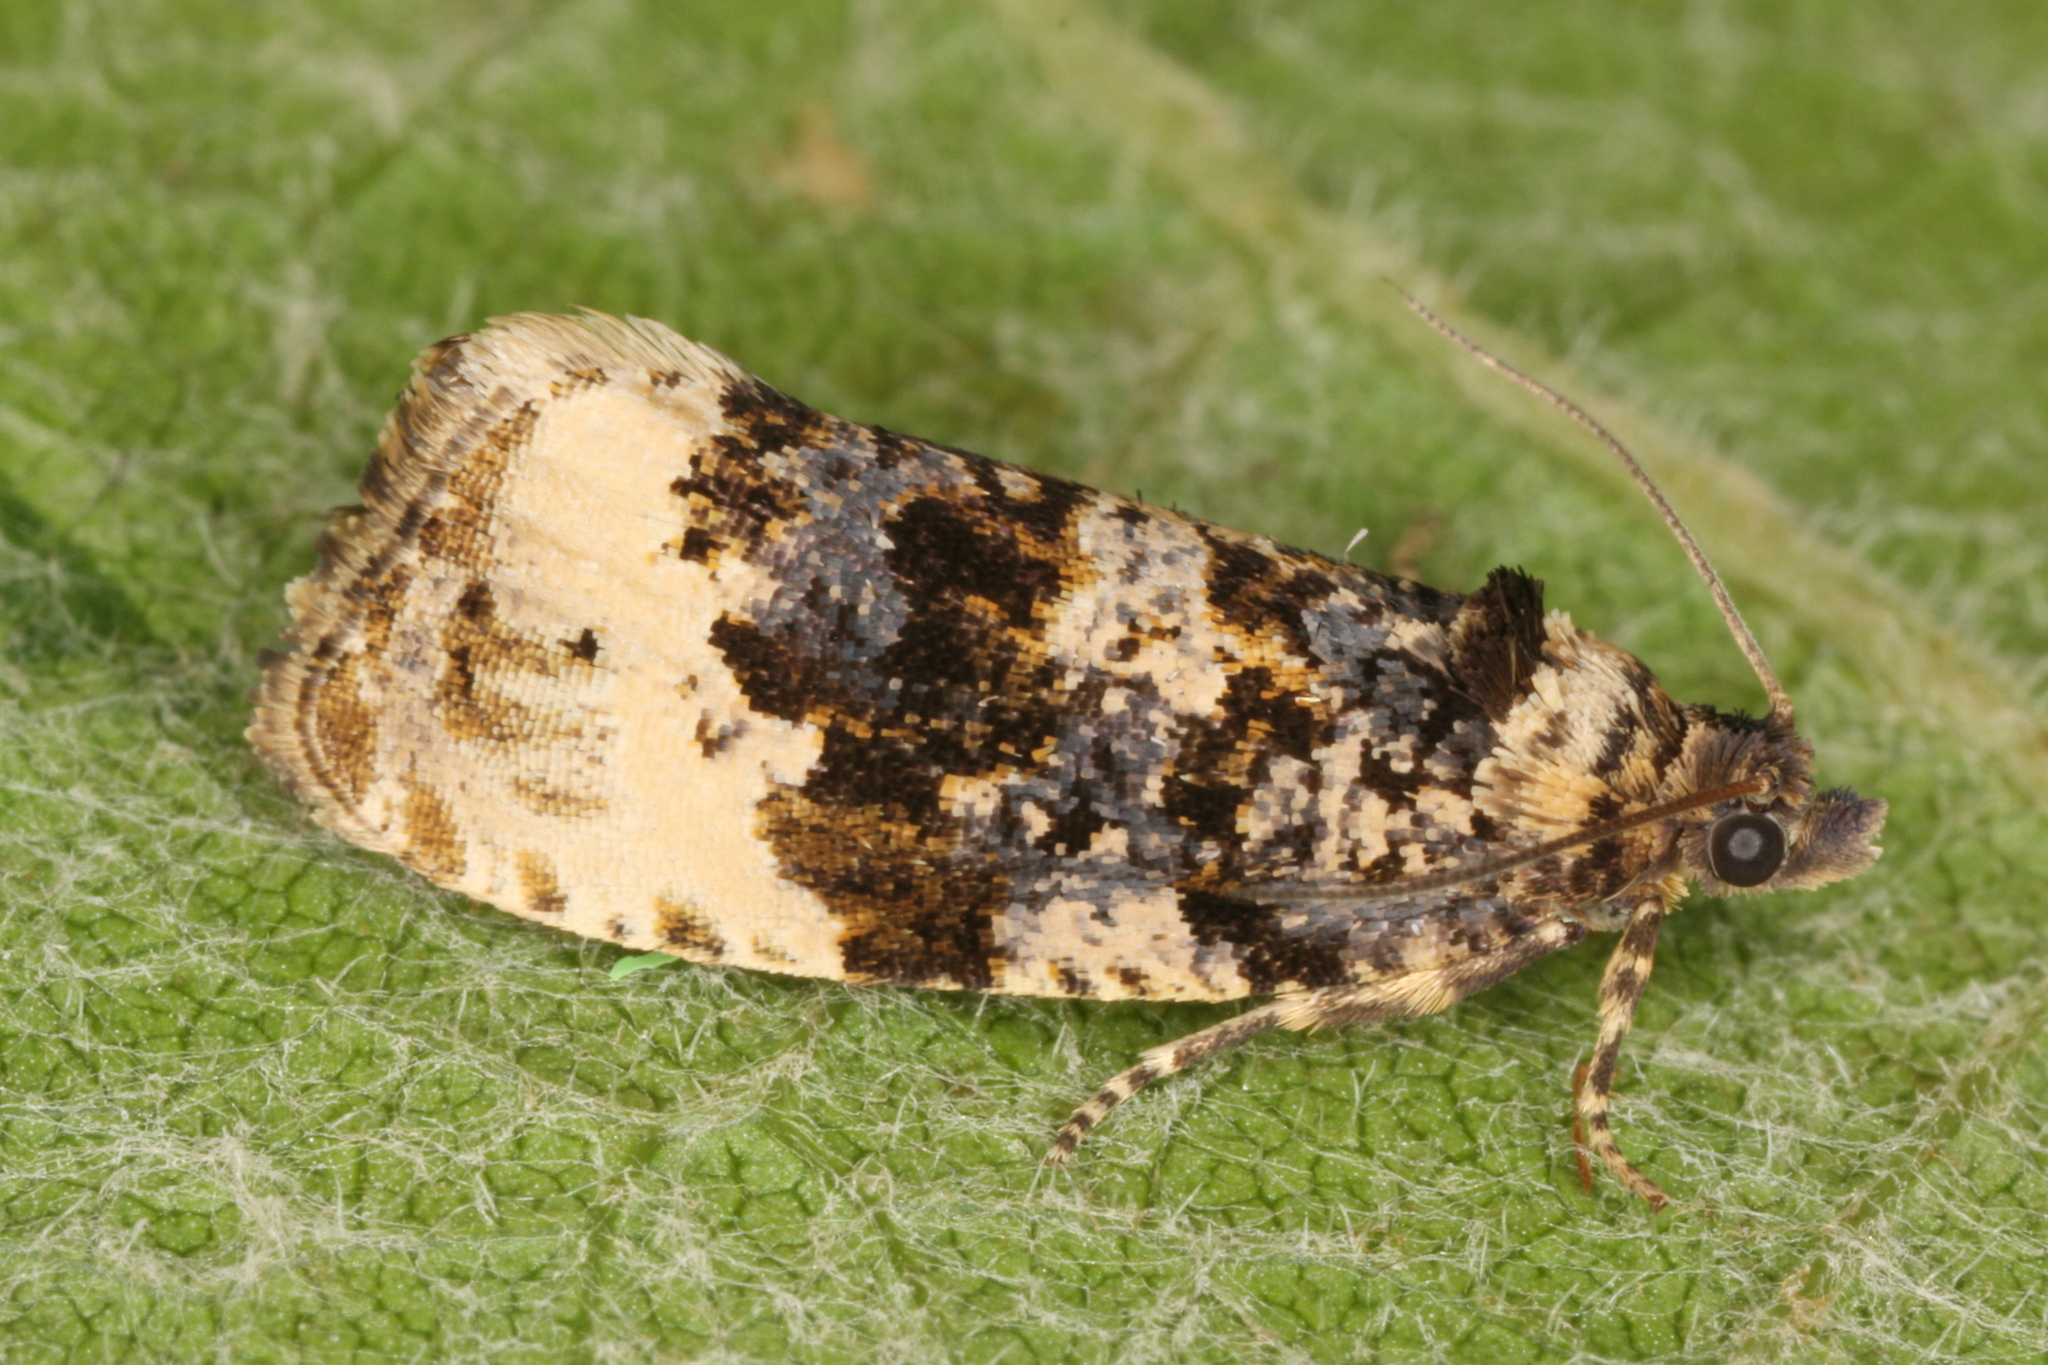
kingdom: Animalia
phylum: Arthropoda
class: Insecta
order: Lepidoptera
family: Tortricidae
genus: Hedya
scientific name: Hedya ochroleucana
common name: Buff-tipped marble
